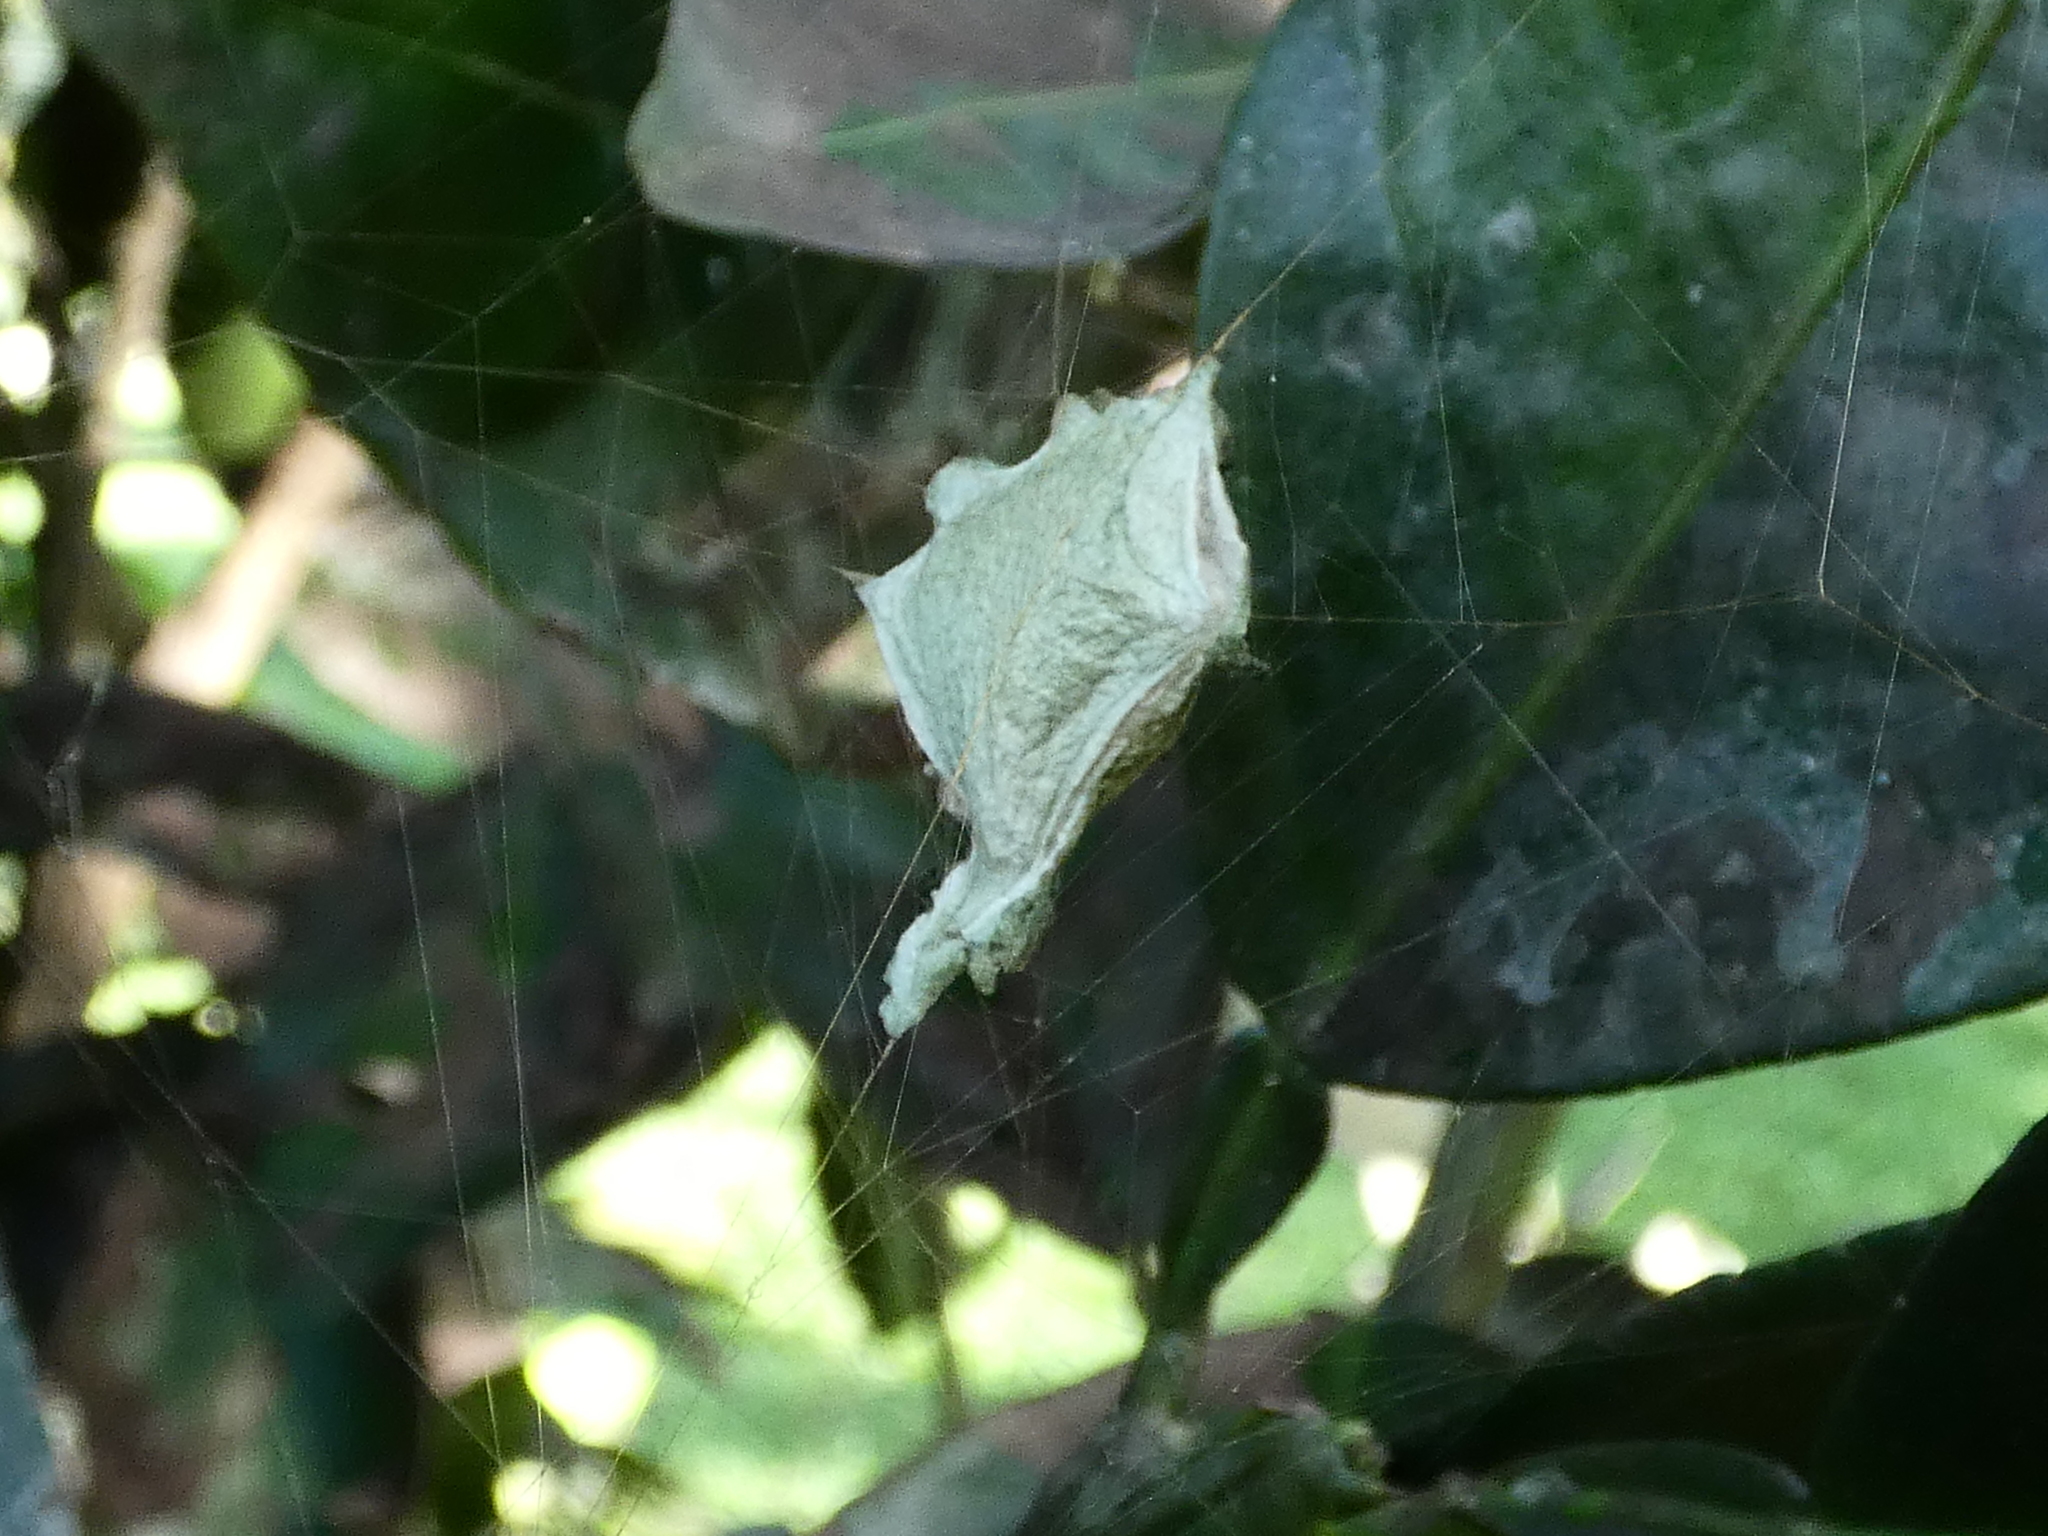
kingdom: Animalia
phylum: Arthropoda
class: Arachnida
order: Araneae
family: Araneidae
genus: Argiope
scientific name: Argiope argentata
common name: Orb weavers
